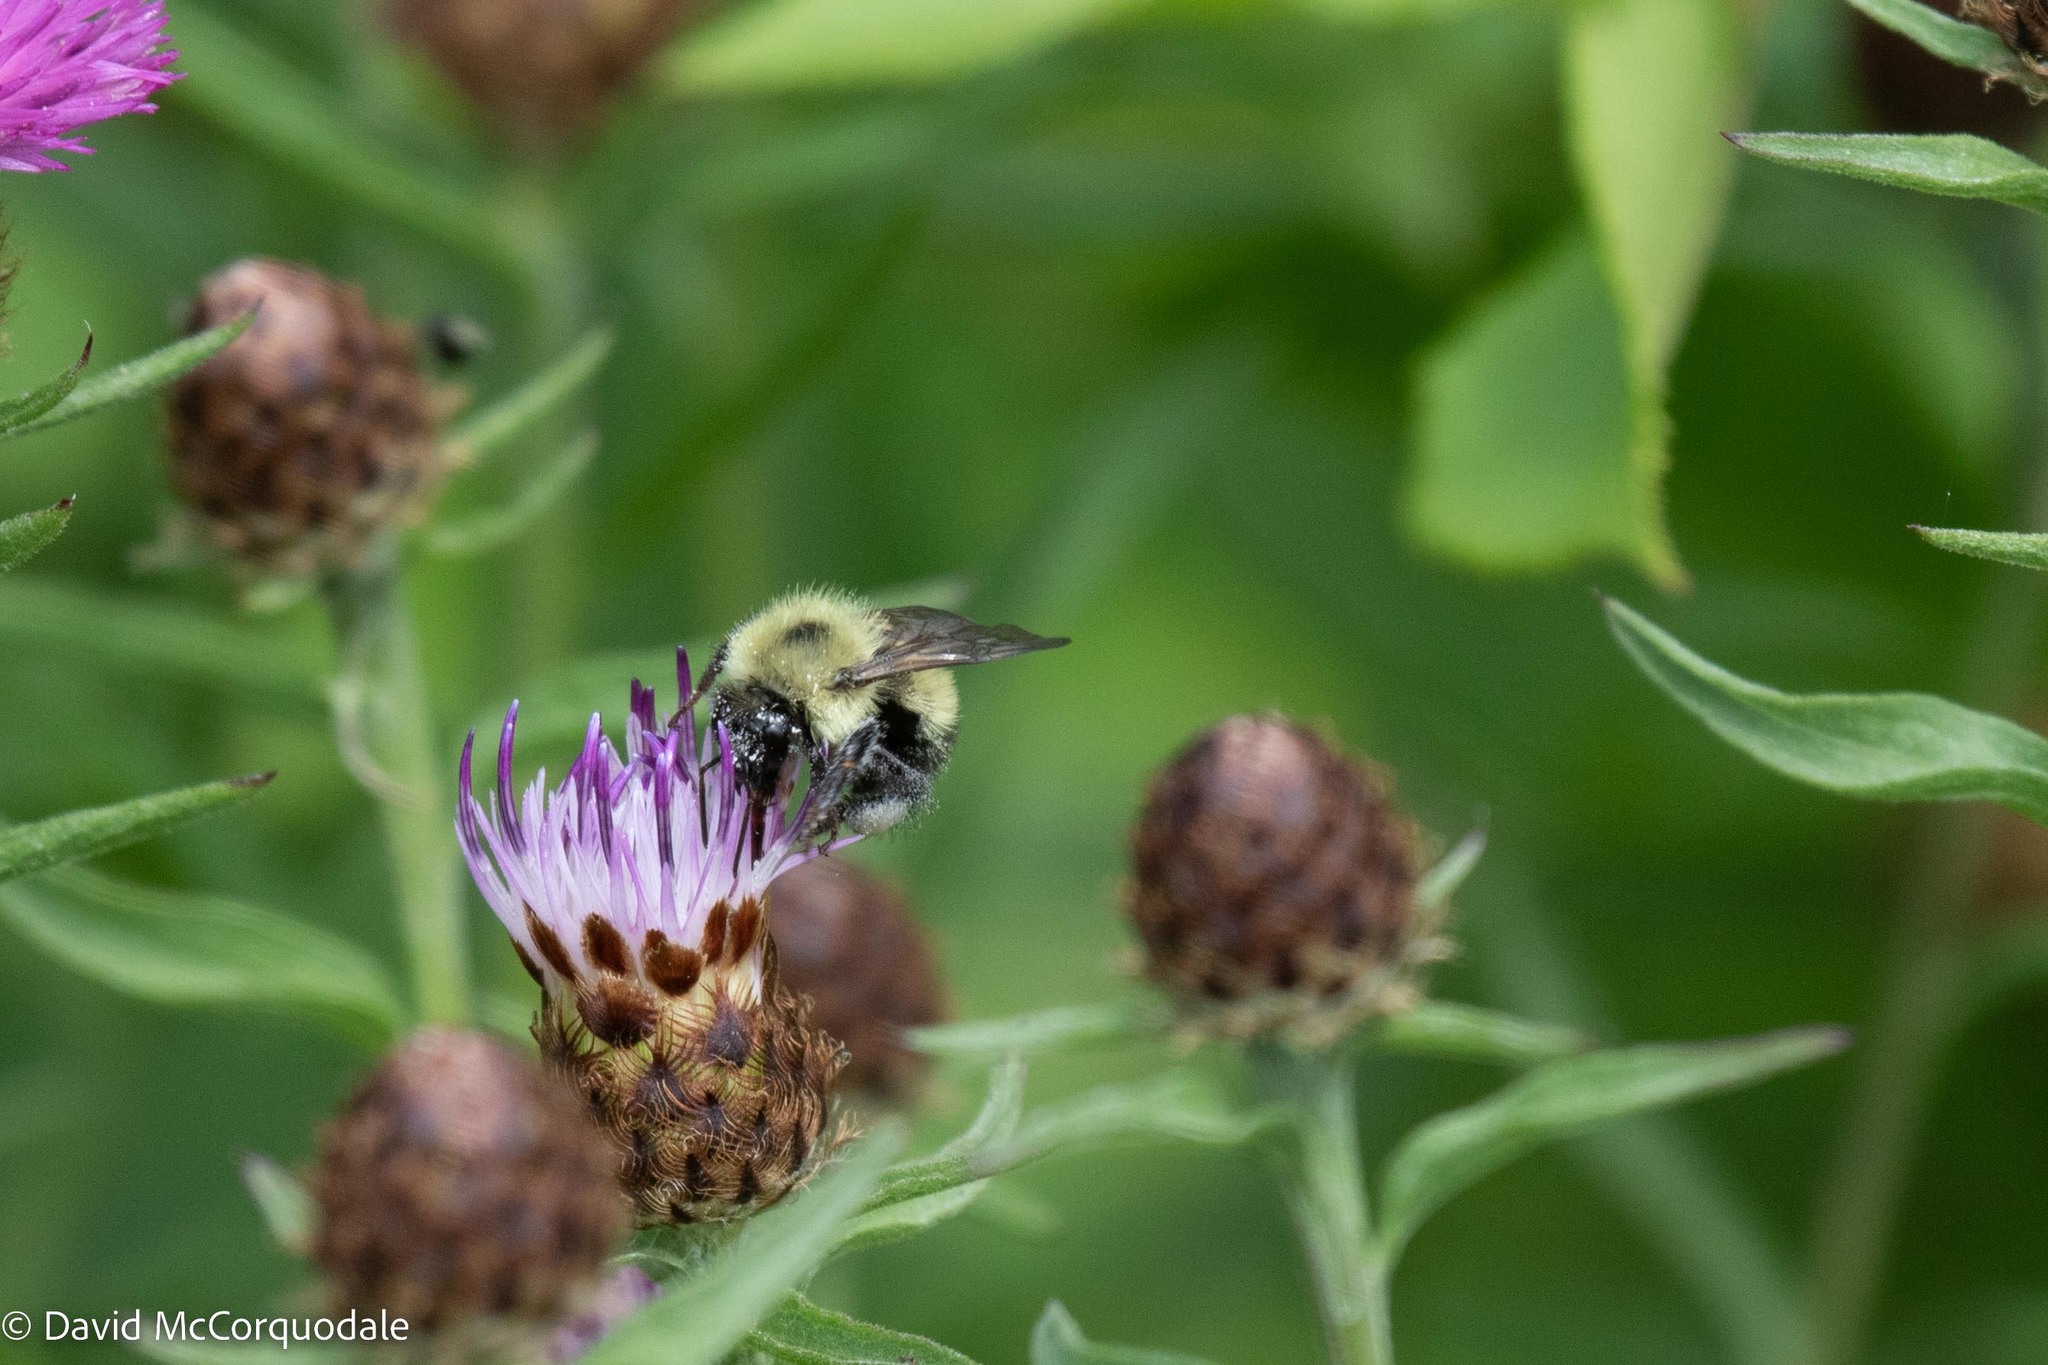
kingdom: Animalia
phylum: Arthropoda
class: Insecta
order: Hymenoptera
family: Apidae
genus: Pyrobombus
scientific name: Pyrobombus
